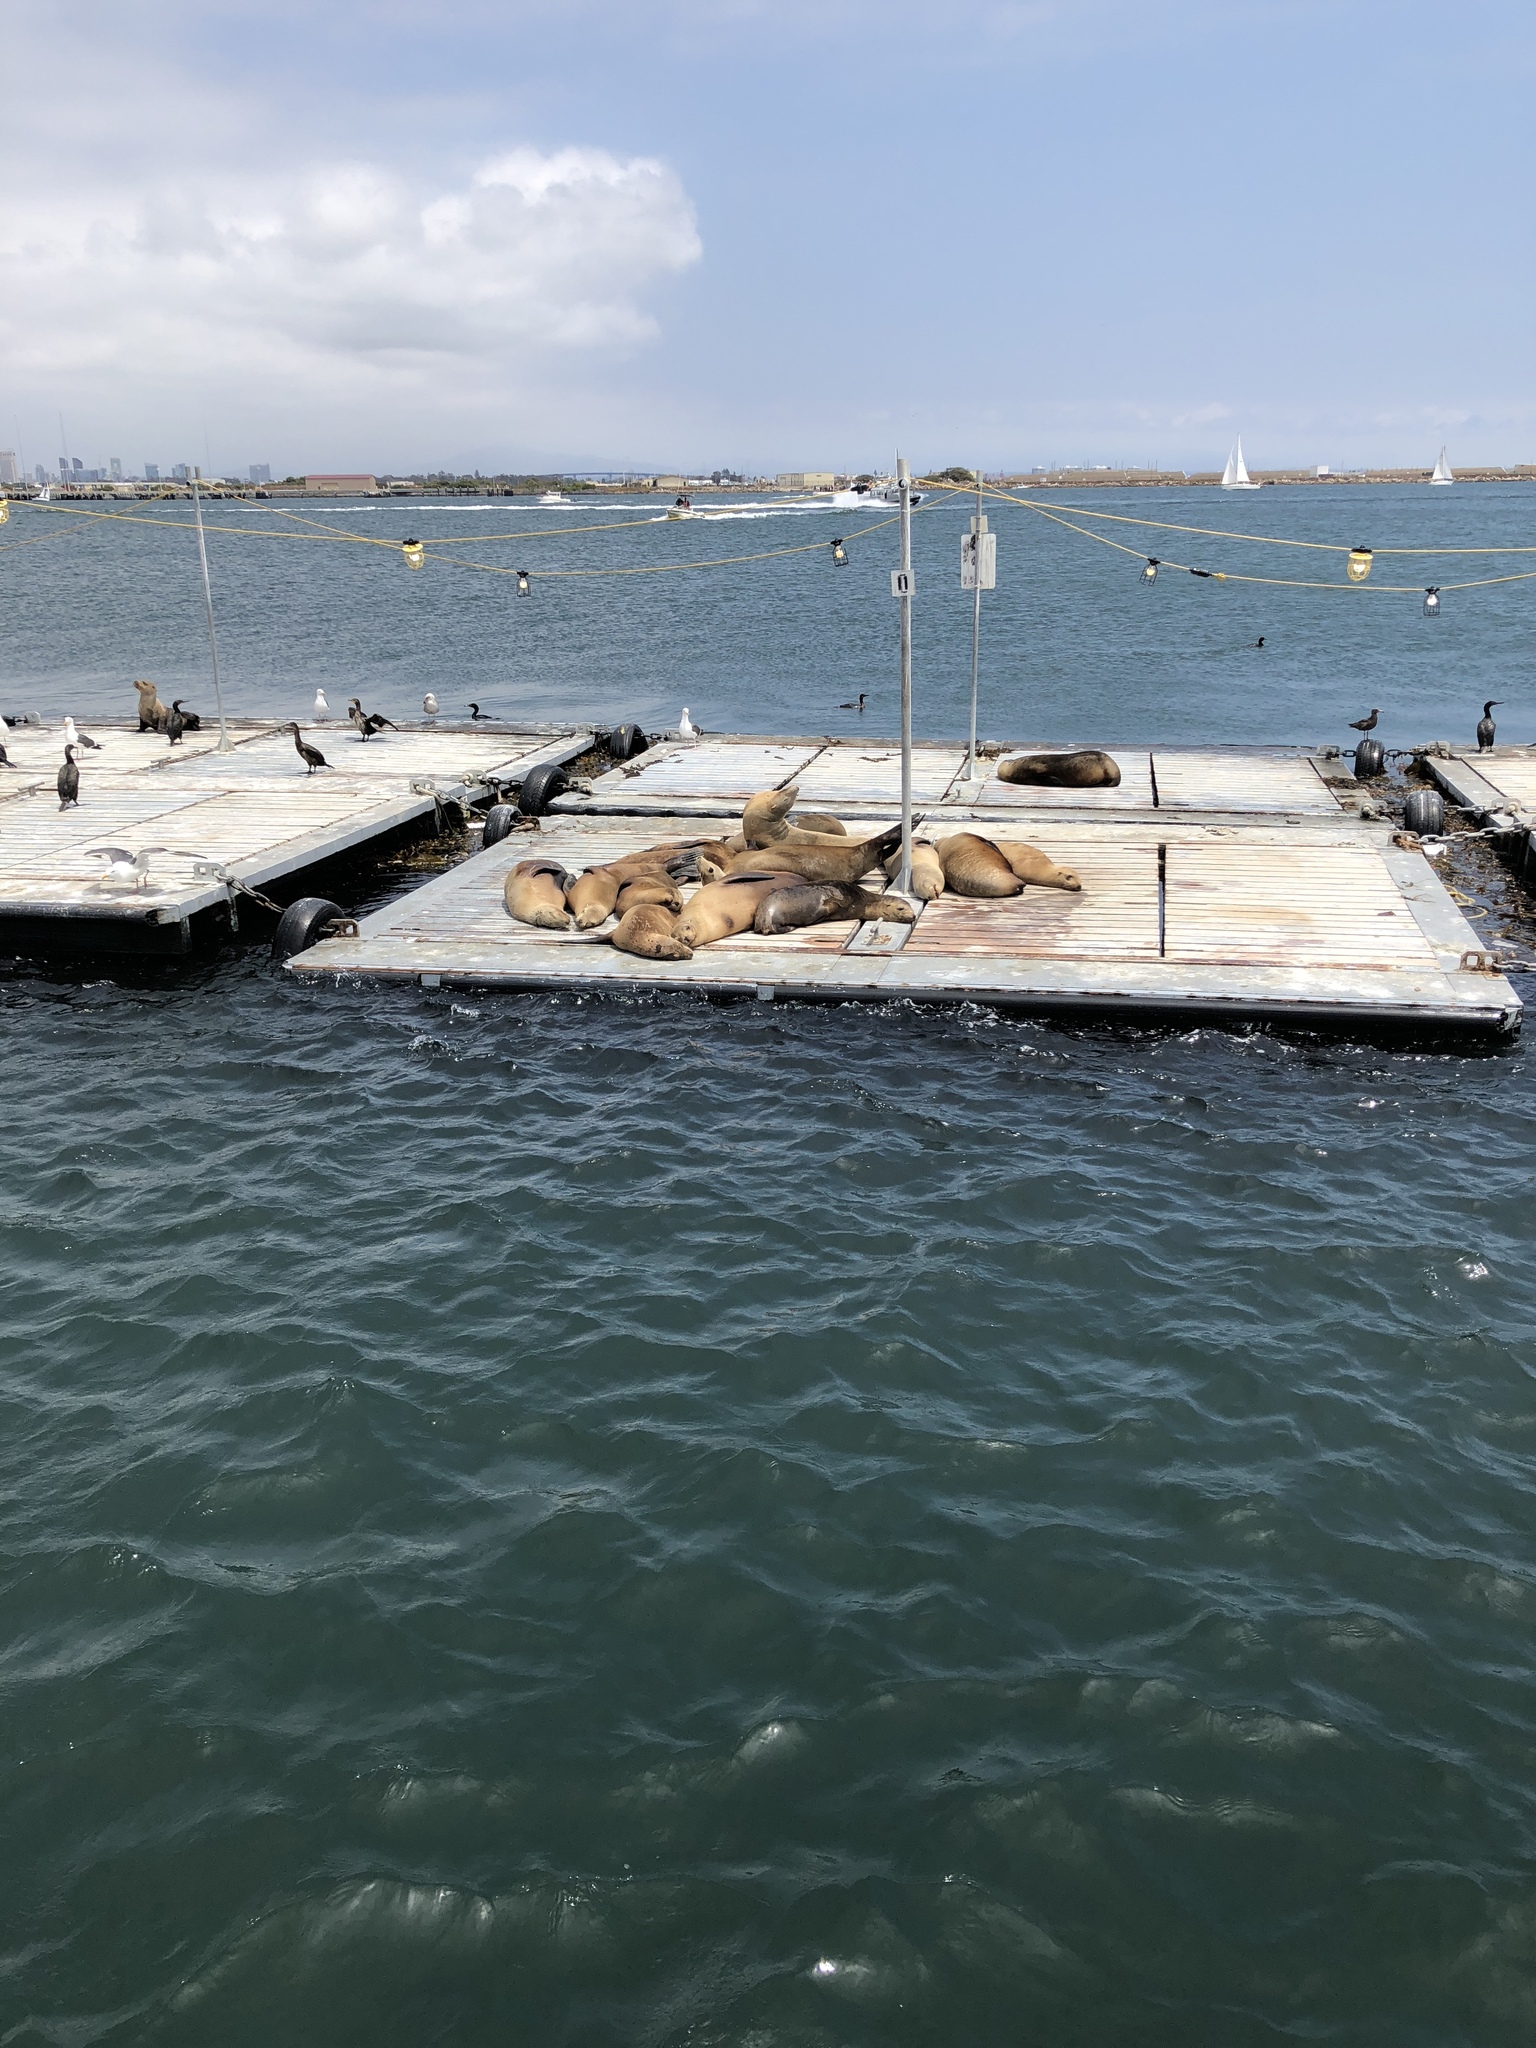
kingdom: Animalia
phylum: Chordata
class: Mammalia
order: Carnivora
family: Otariidae
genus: Zalophus
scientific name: Zalophus californianus
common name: California sea lion
